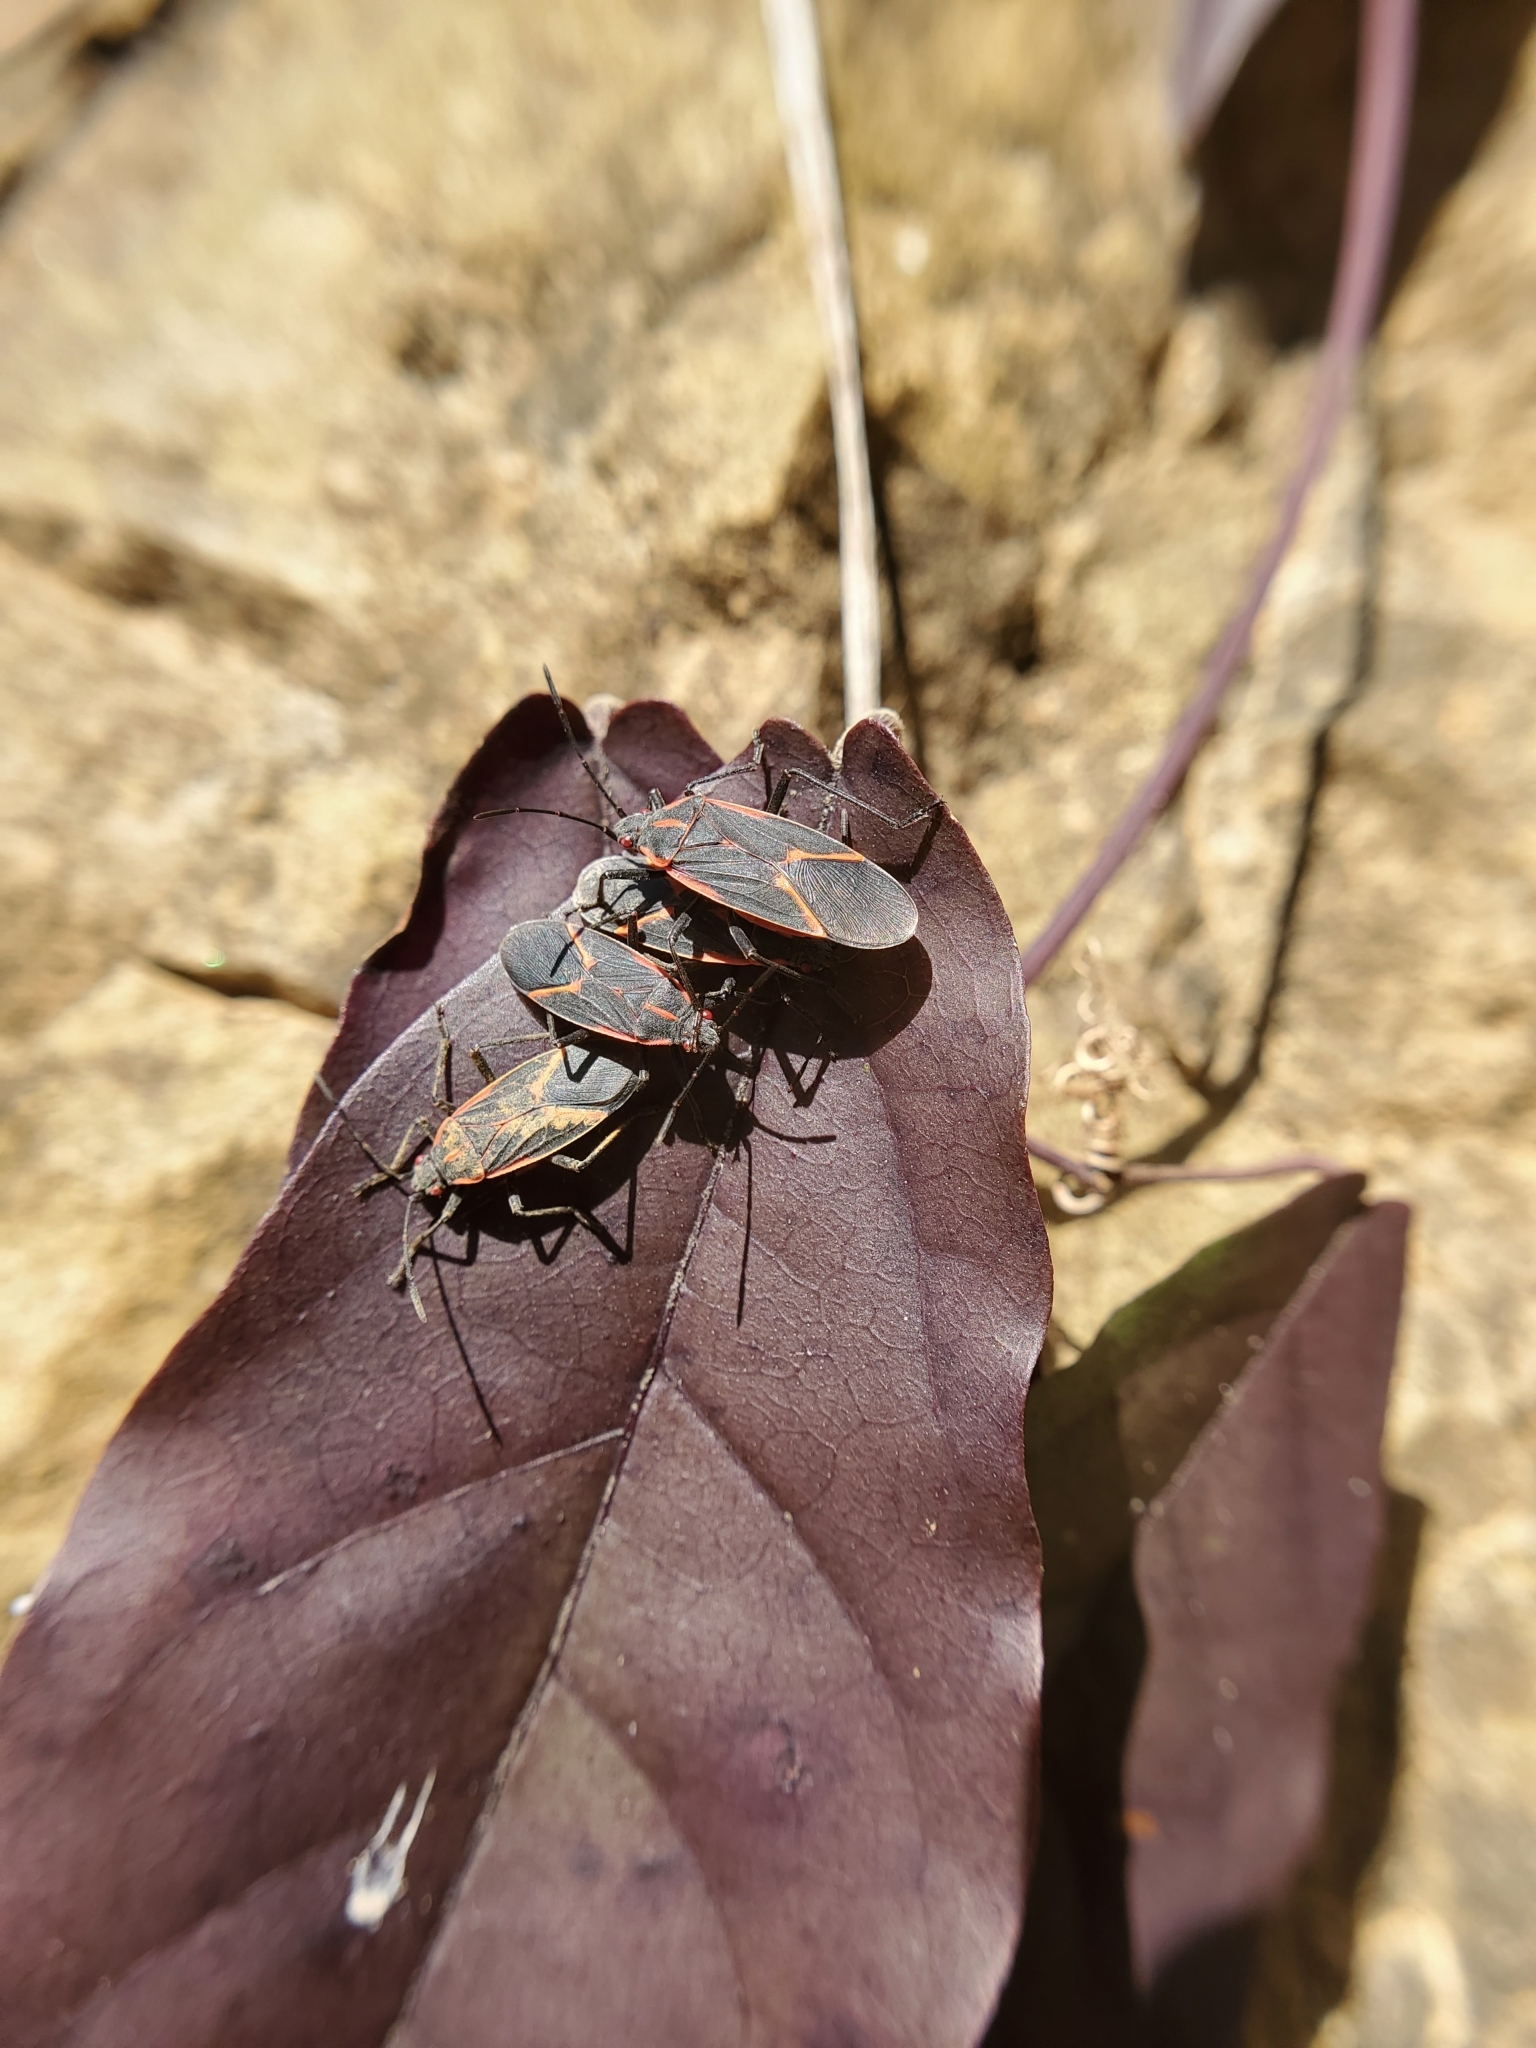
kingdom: Animalia
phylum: Arthropoda
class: Insecta
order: Hemiptera
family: Rhopalidae
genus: Boisea
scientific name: Boisea trivittata
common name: Boxelder bug
